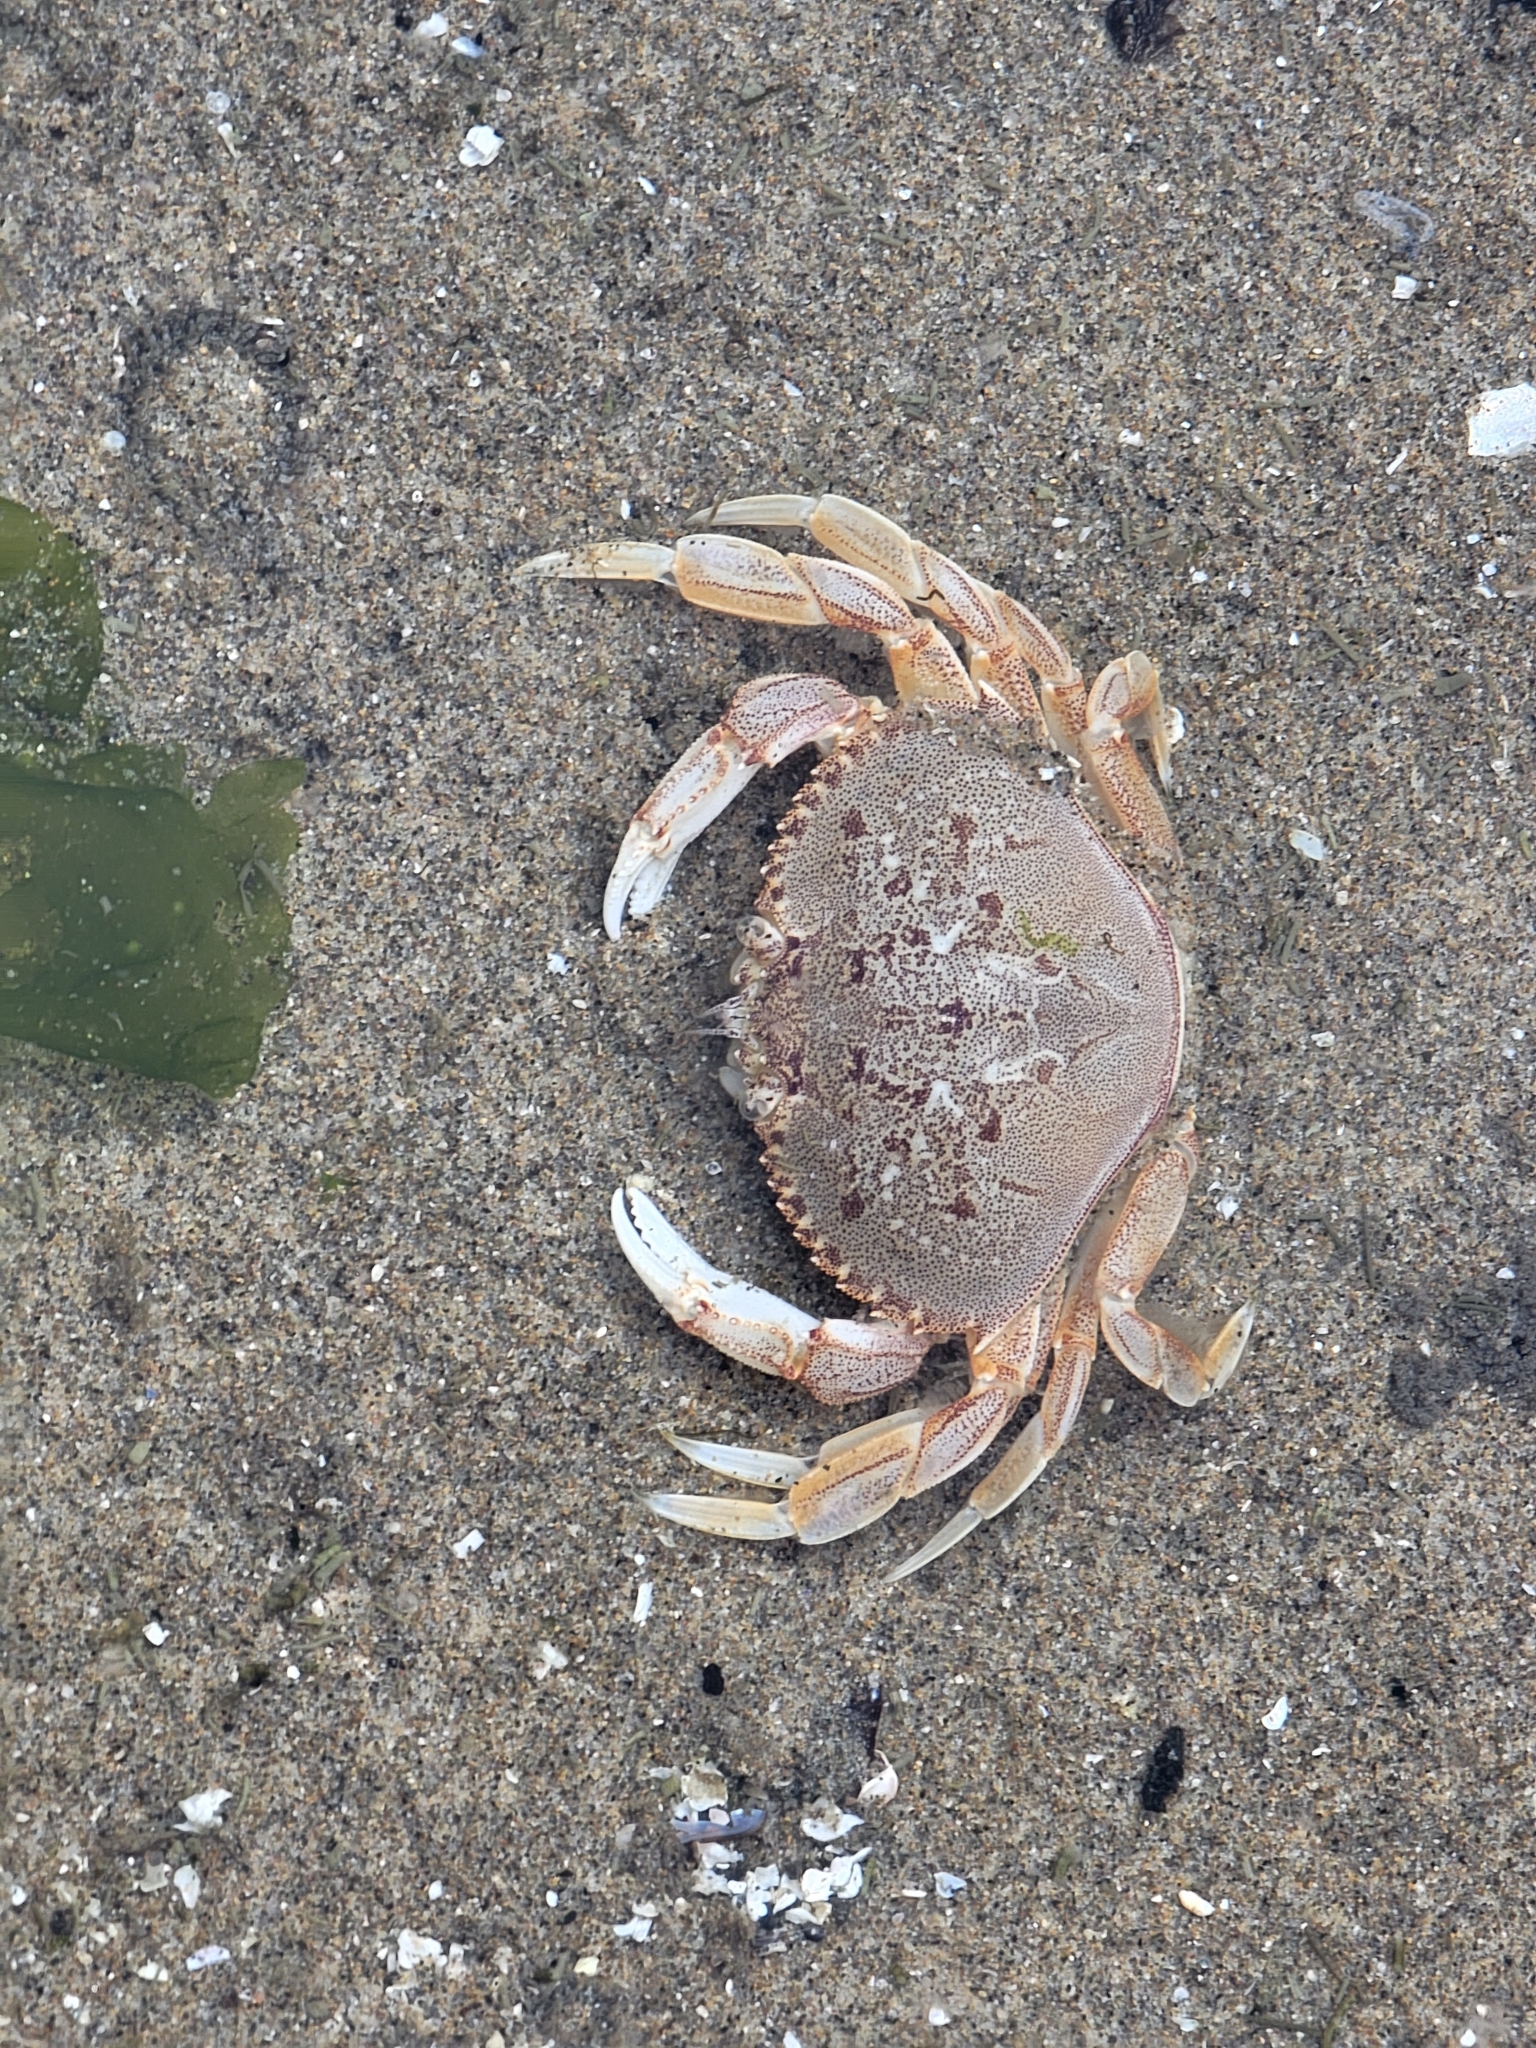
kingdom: Animalia
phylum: Arthropoda
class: Malacostraca
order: Decapoda
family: Cancridae
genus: Metacarcinus
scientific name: Metacarcinus magister
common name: Californian crab
